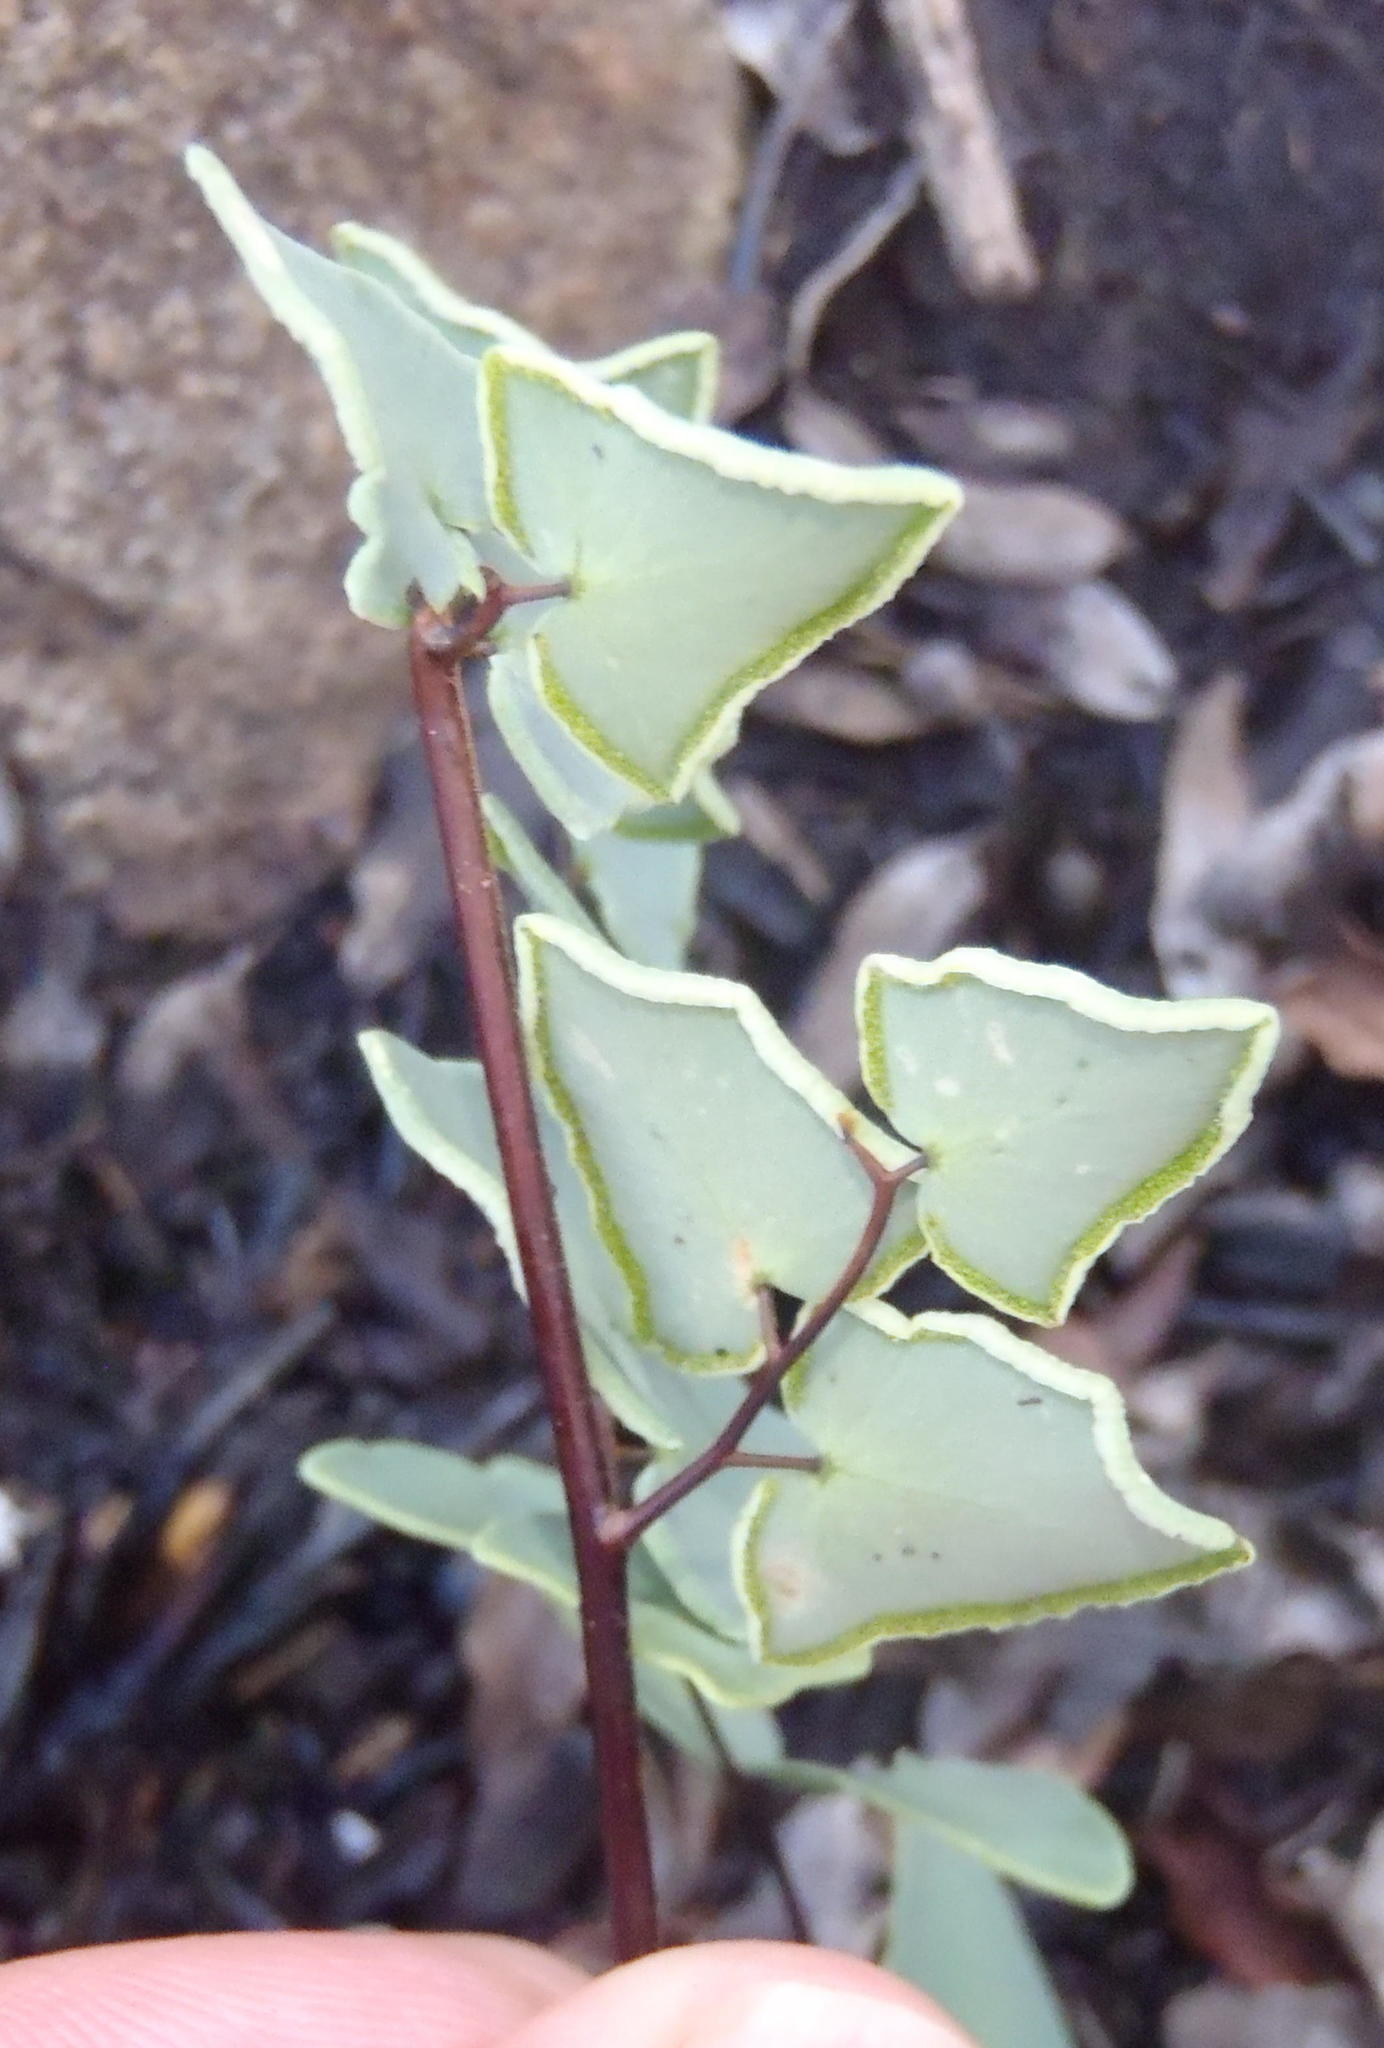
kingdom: Plantae
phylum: Tracheophyta
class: Polypodiopsida
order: Polypodiales
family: Pteridaceae
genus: Pellaea
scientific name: Pellaea calomelanos
